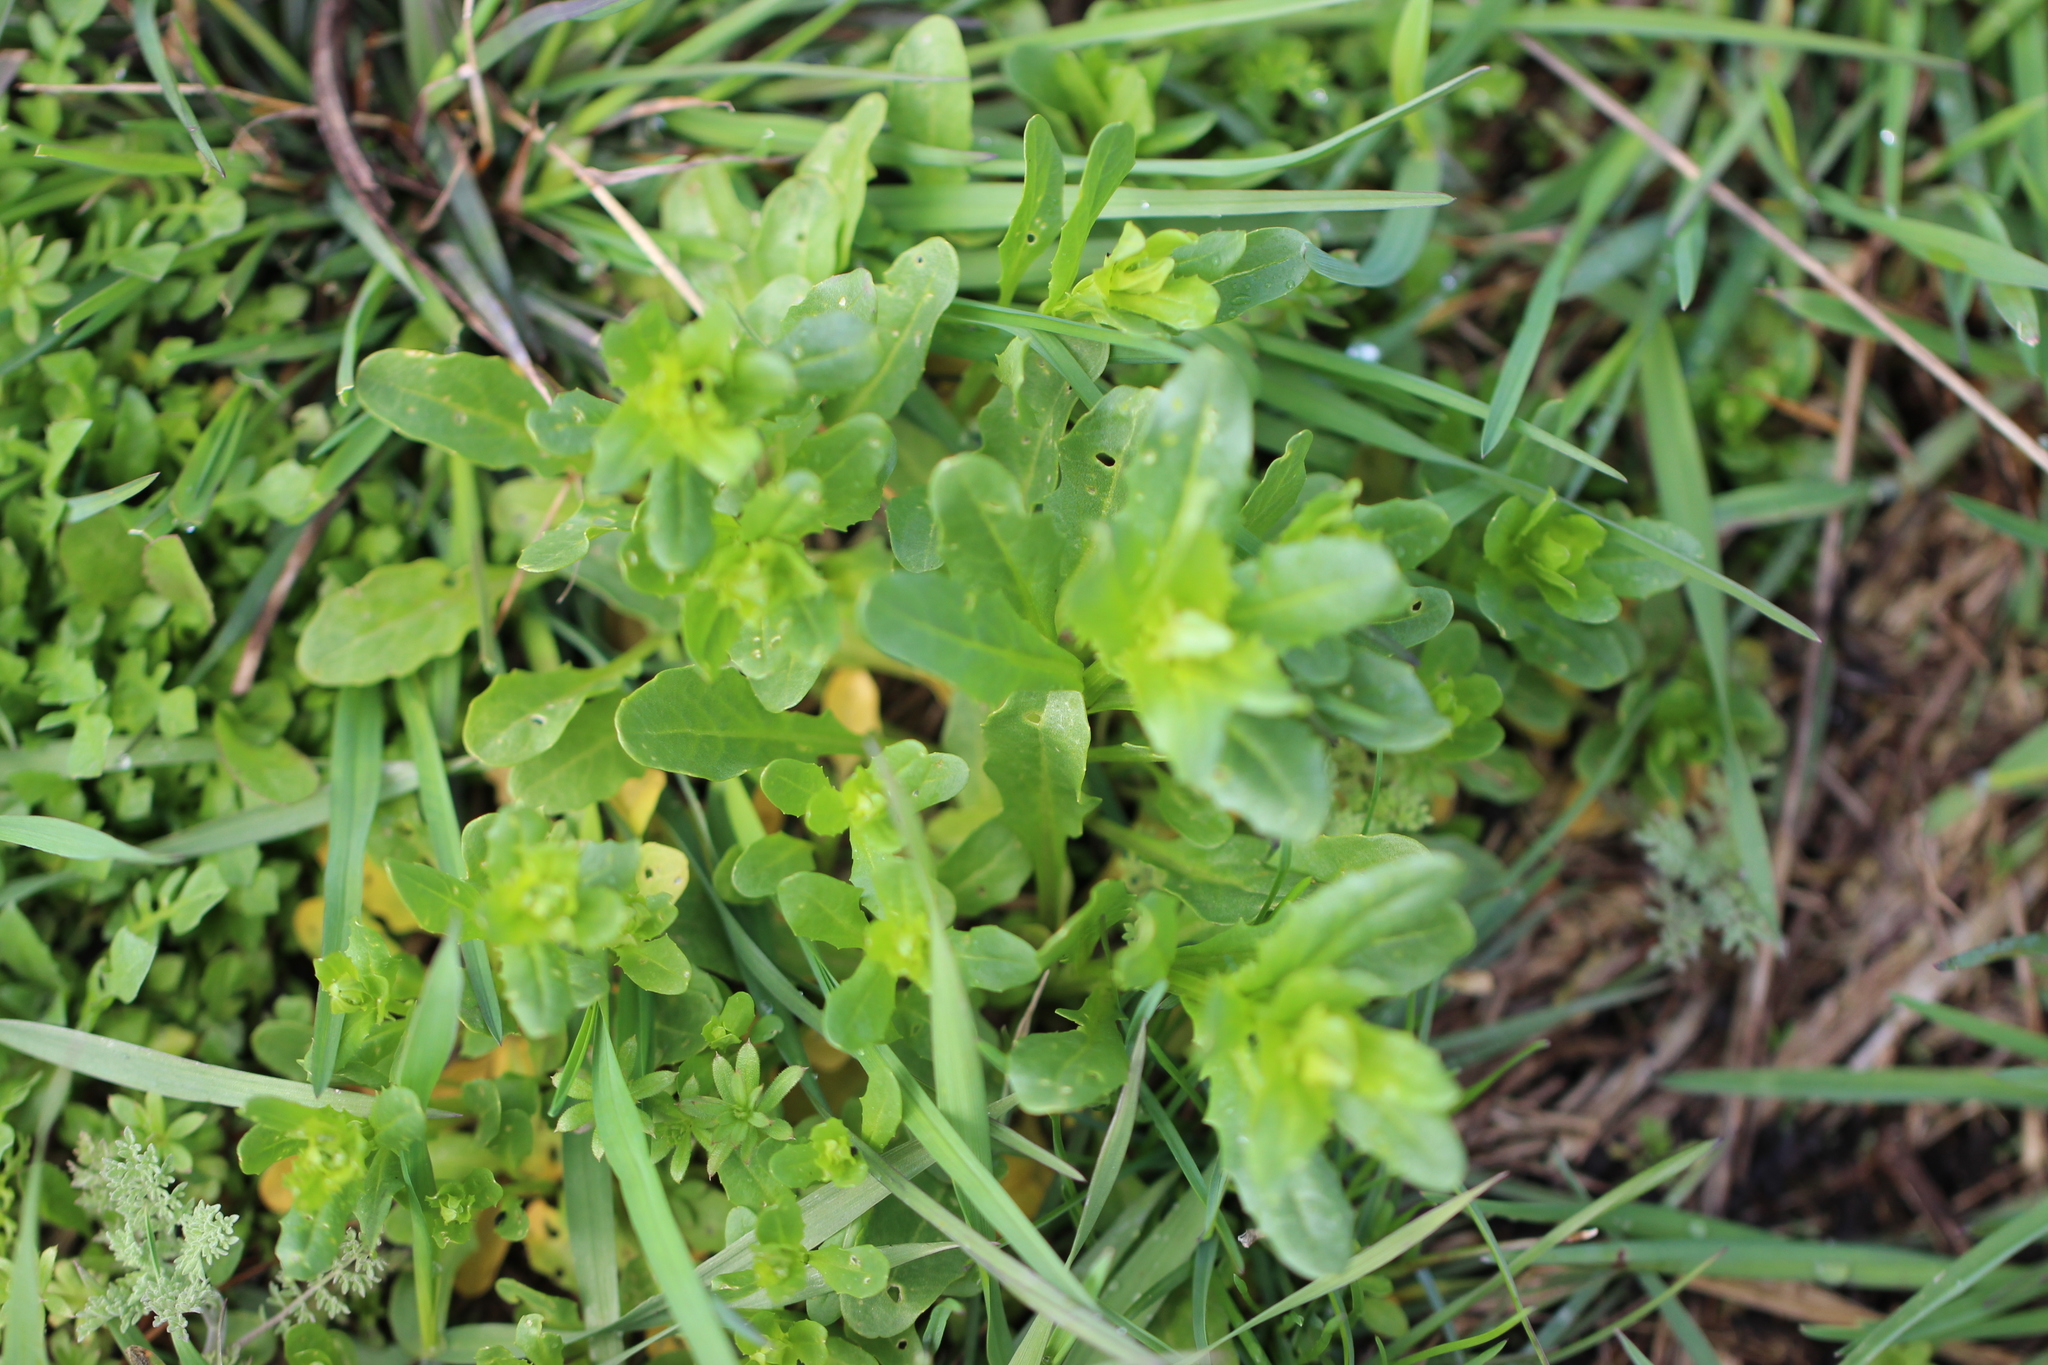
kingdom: Plantae
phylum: Tracheophyta
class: Magnoliopsida
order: Brassicales
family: Brassicaceae
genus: Thlaspi
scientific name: Thlaspi arvense
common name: Field pennycress
